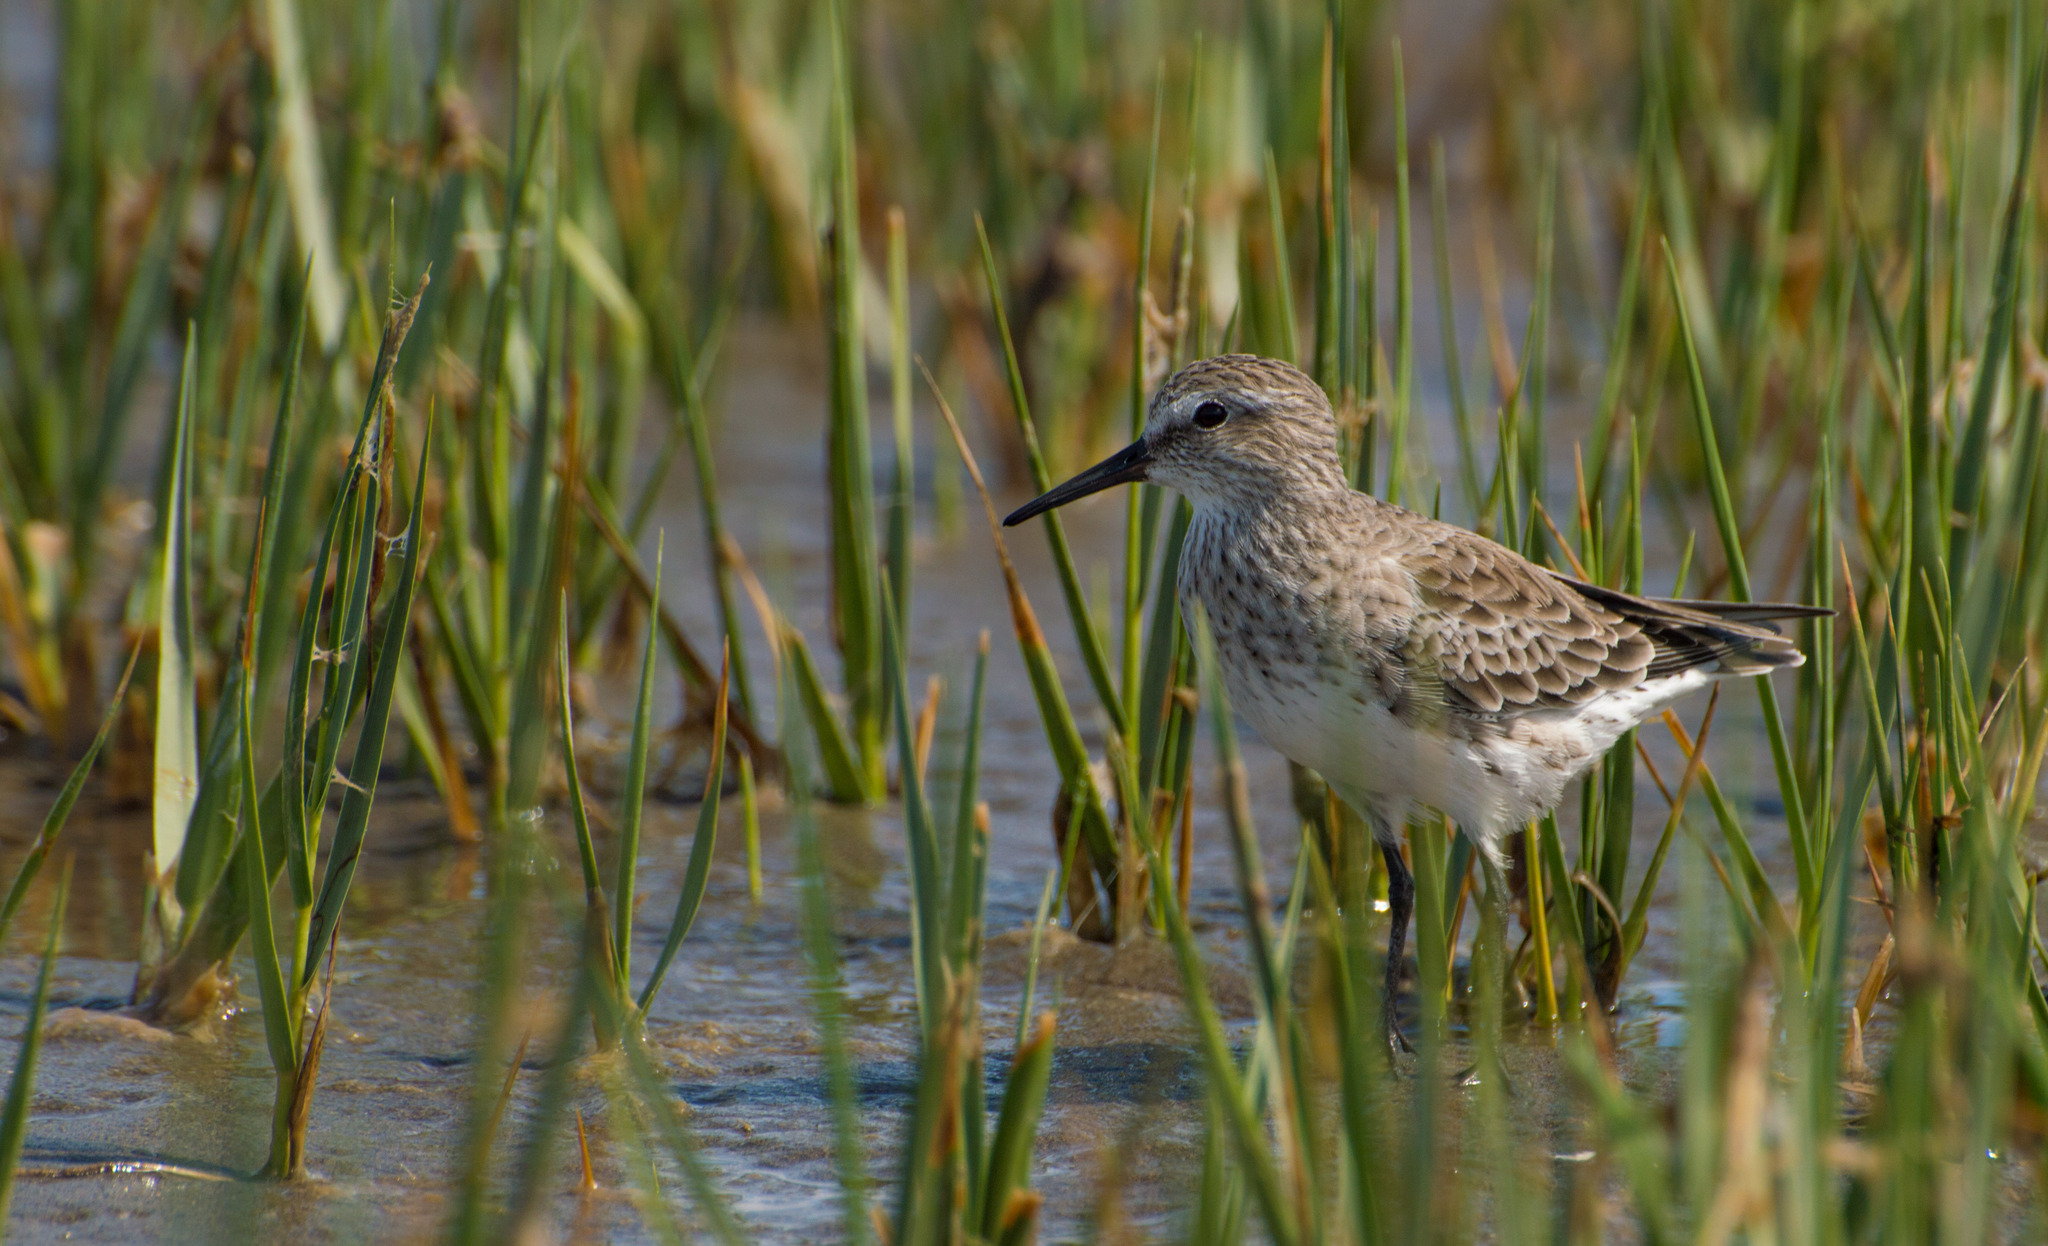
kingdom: Animalia
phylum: Chordata
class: Aves
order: Charadriiformes
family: Scolopacidae
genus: Calidris
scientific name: Calidris fuscicollis
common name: White-rumped sandpiper
